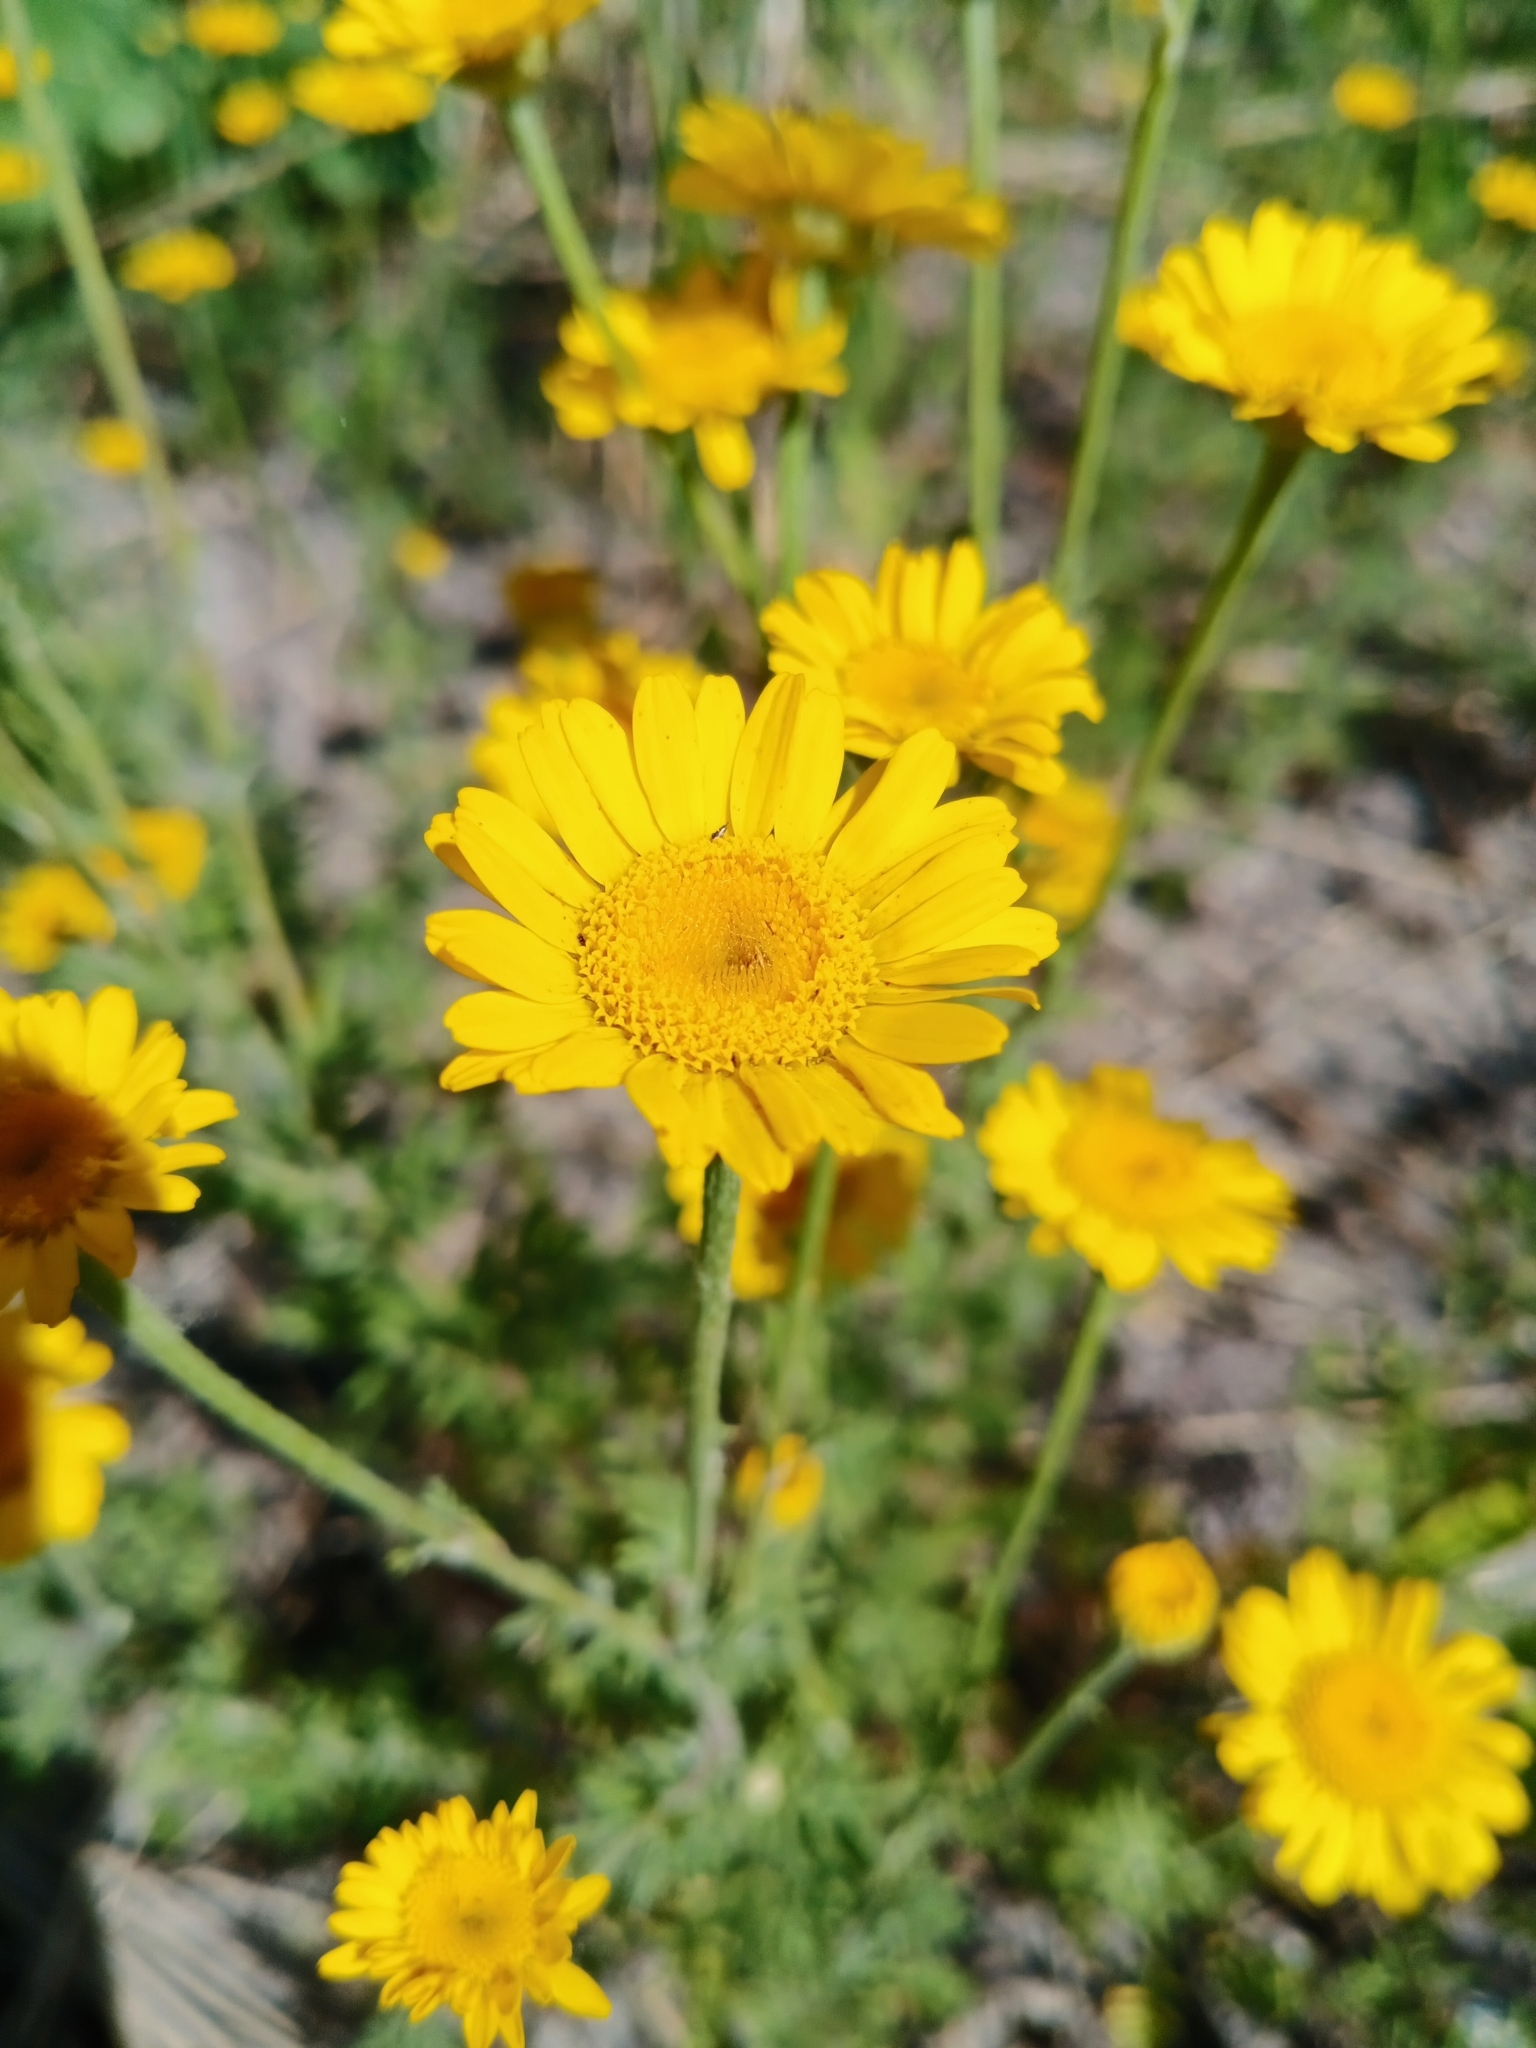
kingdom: Plantae
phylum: Tracheophyta
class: Magnoliopsida
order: Asterales
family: Asteraceae
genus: Cota
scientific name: Cota tinctoria
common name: Golden chamomile
